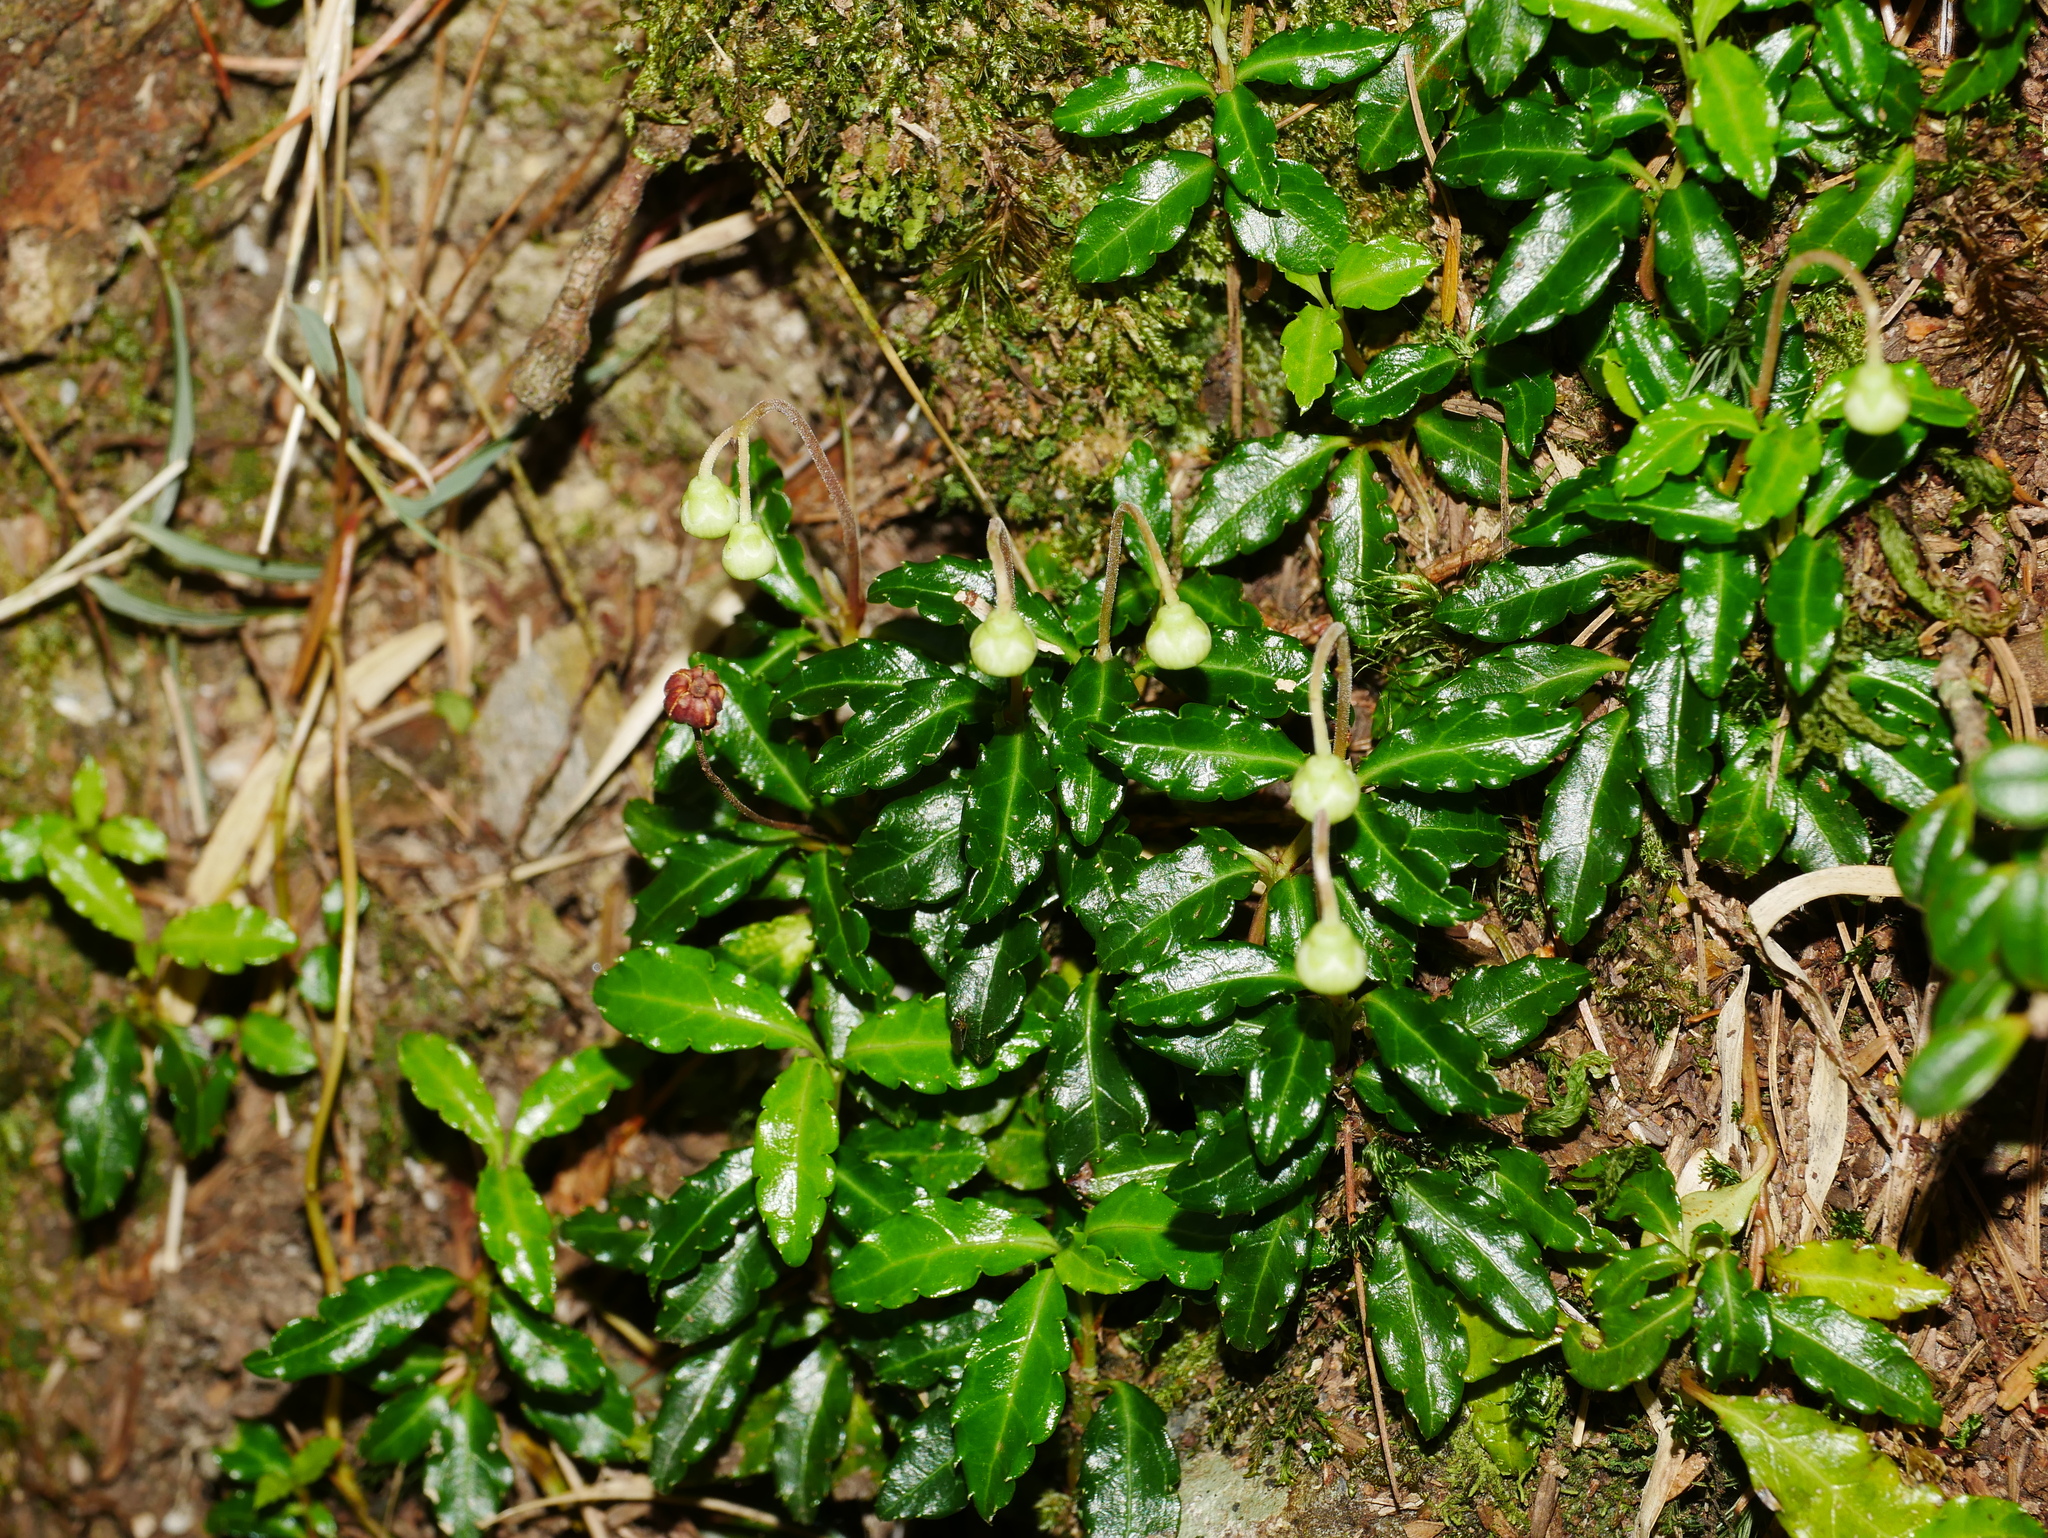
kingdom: Plantae
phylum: Tracheophyta
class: Magnoliopsida
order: Ericales
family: Ericaceae
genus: Chimaphila
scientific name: Chimaphila monticola
